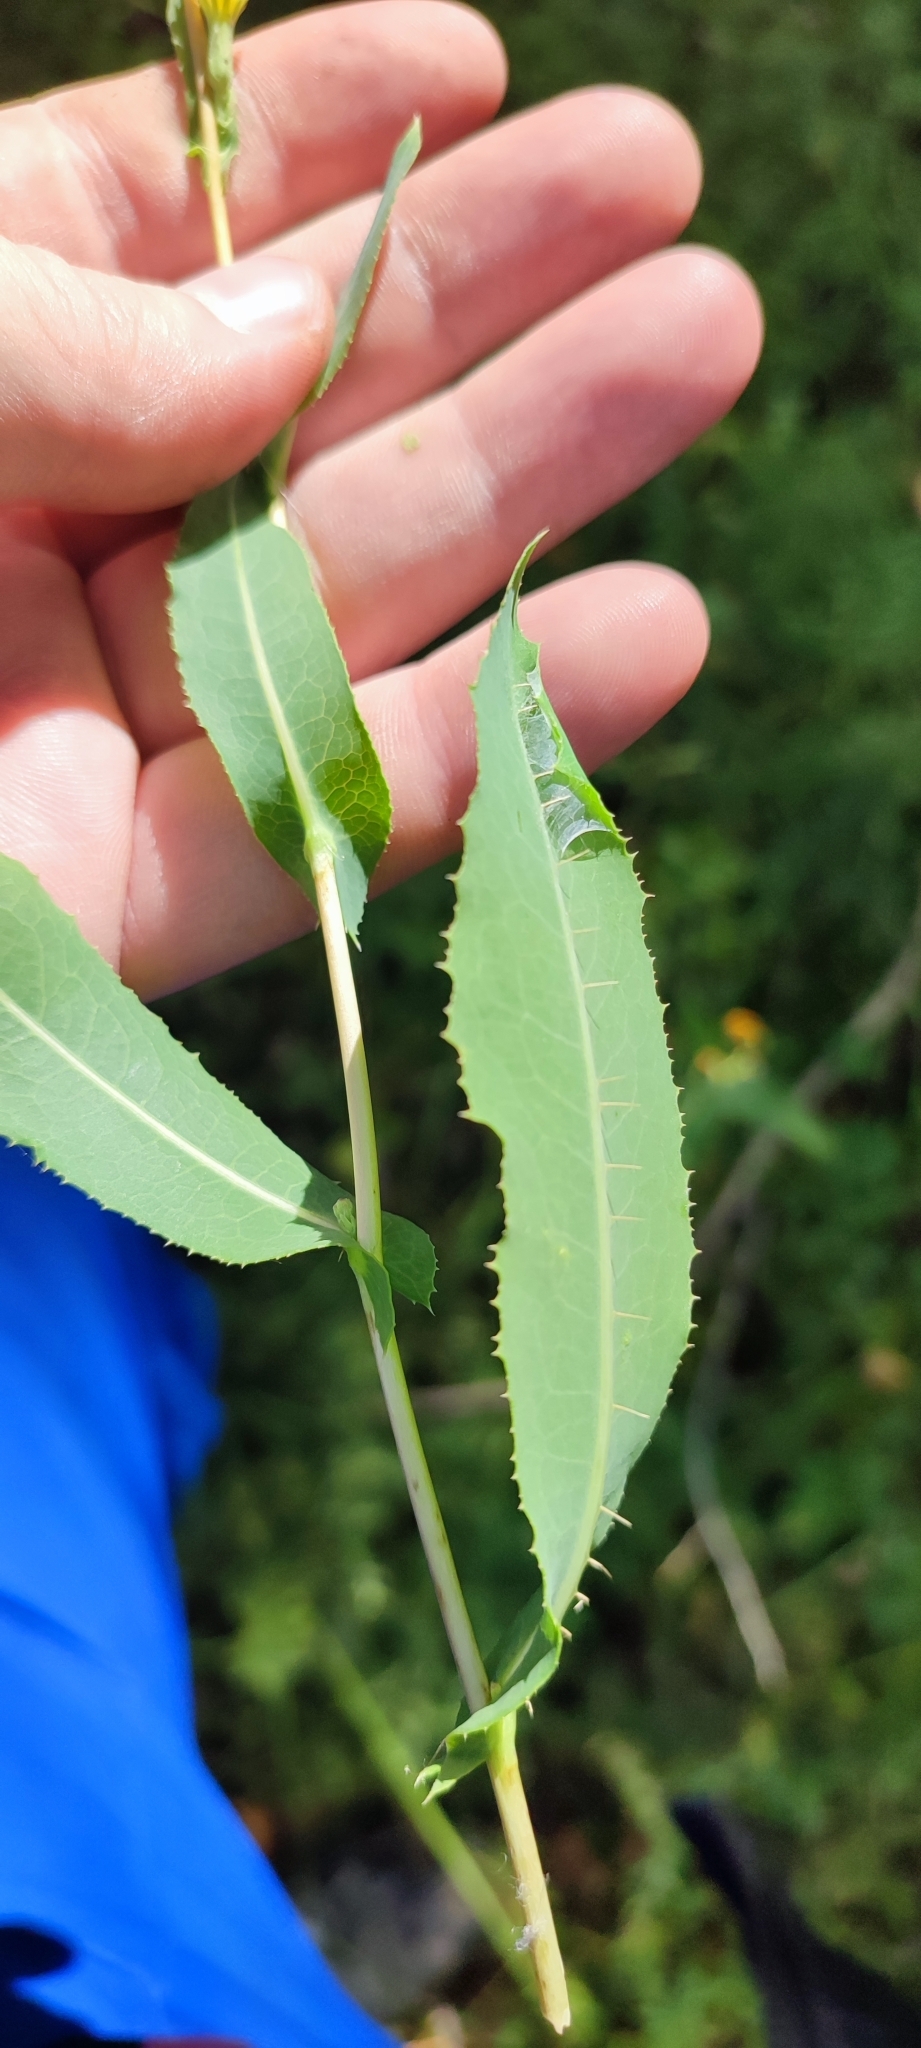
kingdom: Plantae
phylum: Tracheophyta
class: Magnoliopsida
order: Asterales
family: Asteraceae
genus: Lactuca
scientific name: Lactuca serriola
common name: Prickly lettuce
